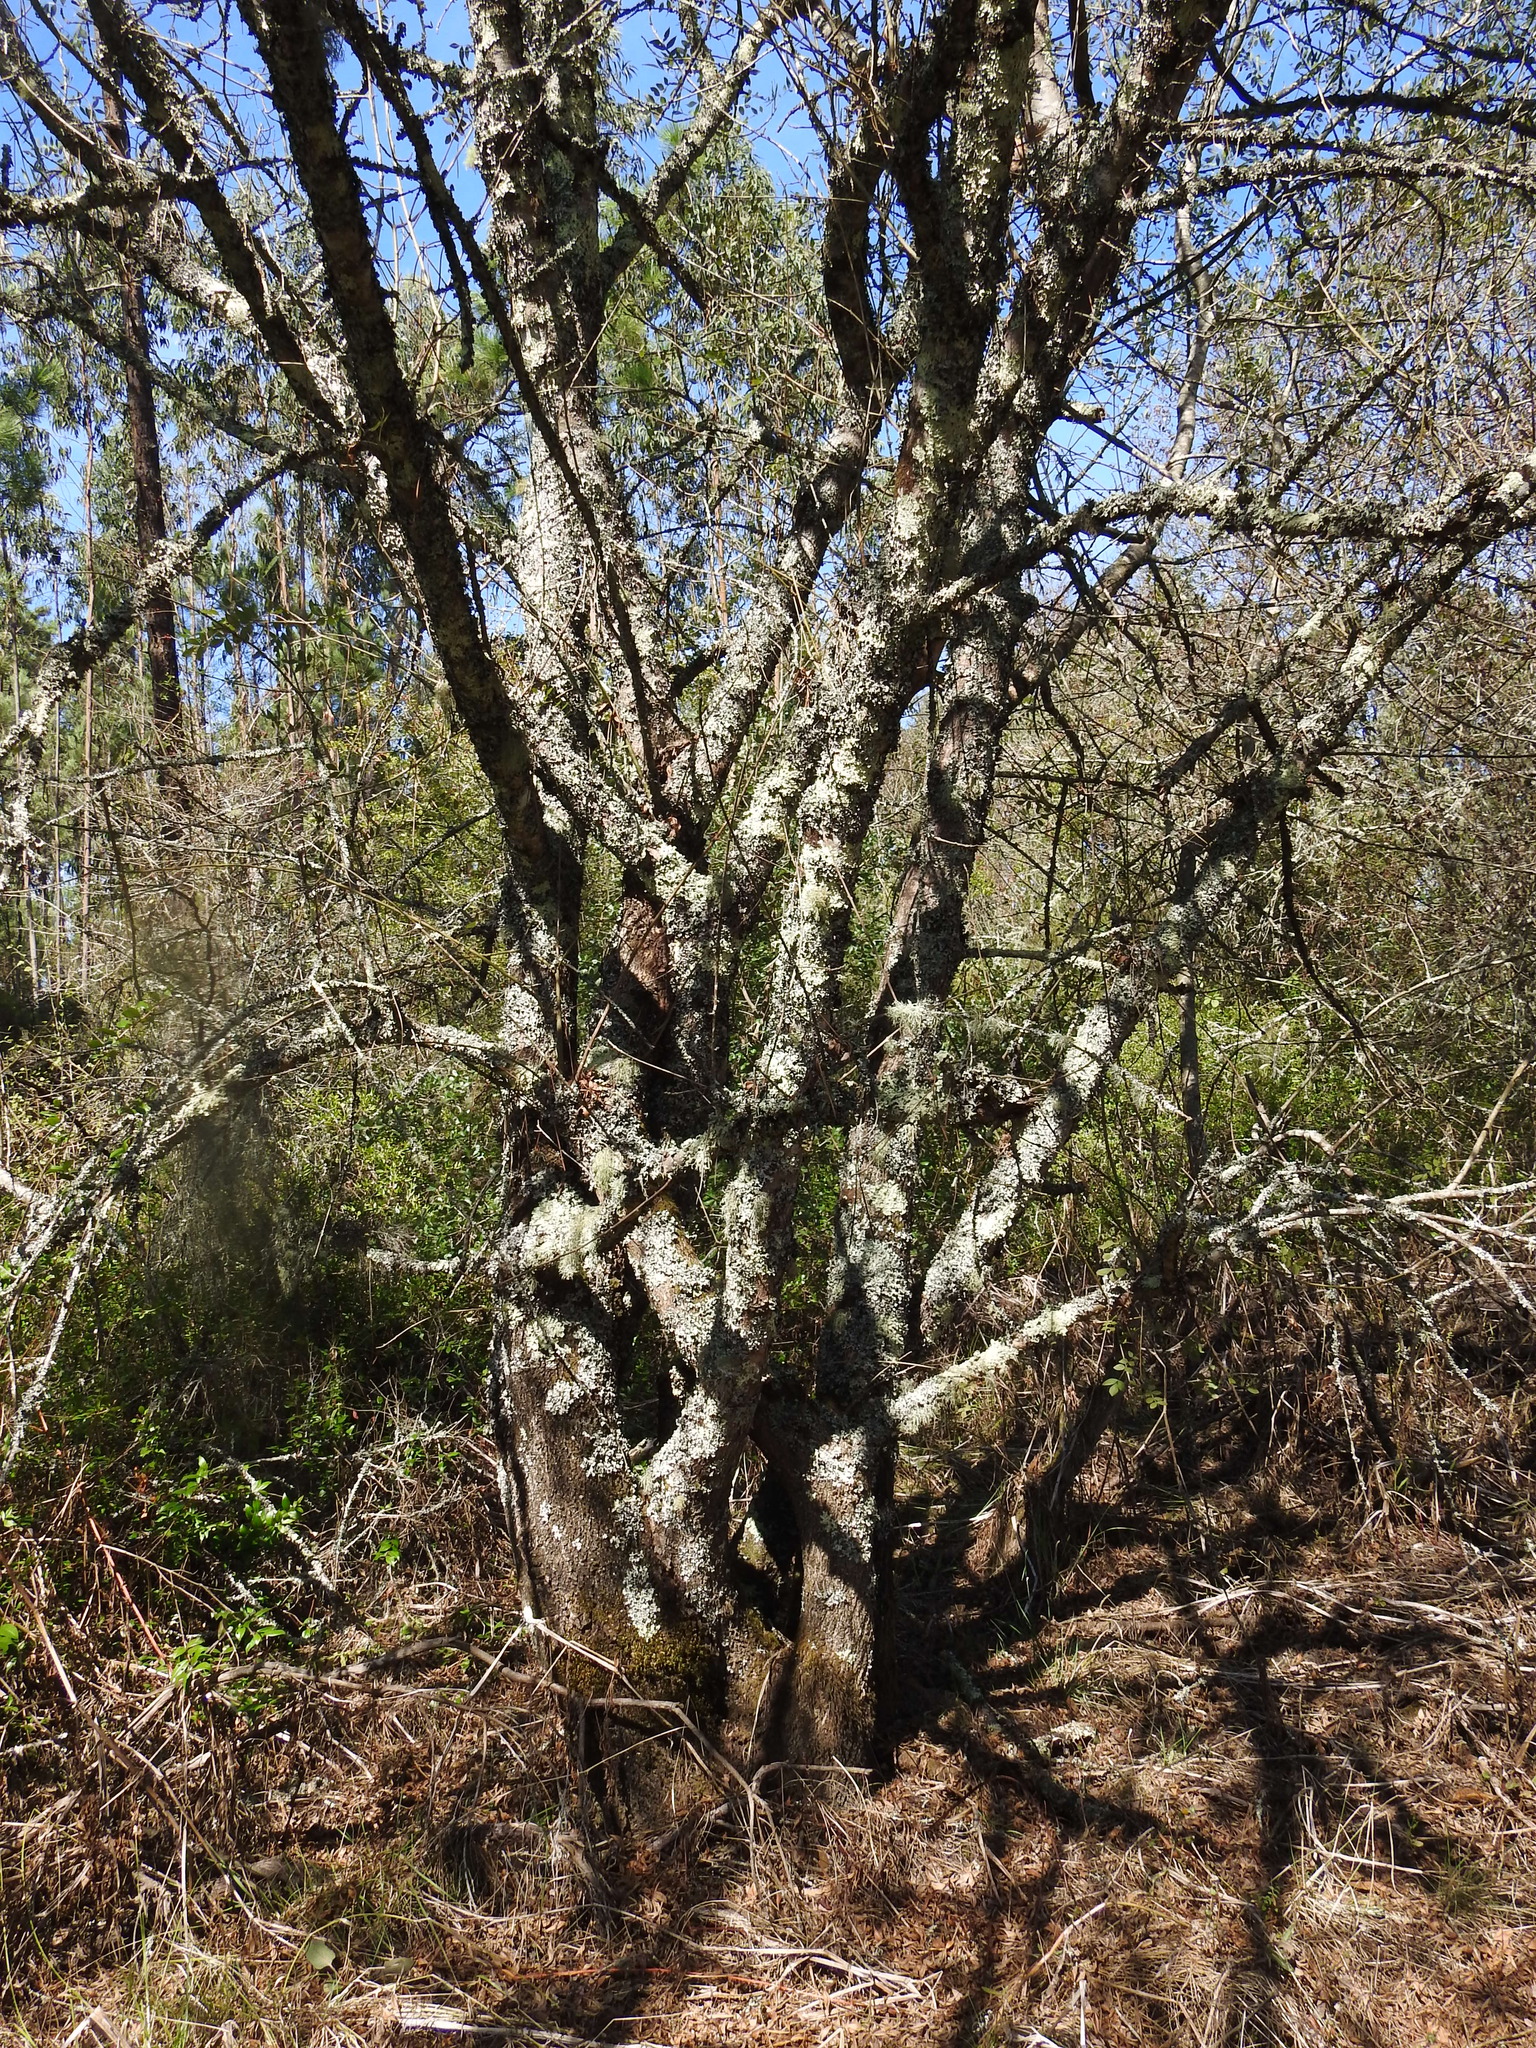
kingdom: Plantae
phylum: Tracheophyta
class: Magnoliopsida
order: Lamiales
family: Oleaceae
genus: Fraxinus
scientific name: Fraxinus angustifolia
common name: Narrow-leafed ash
